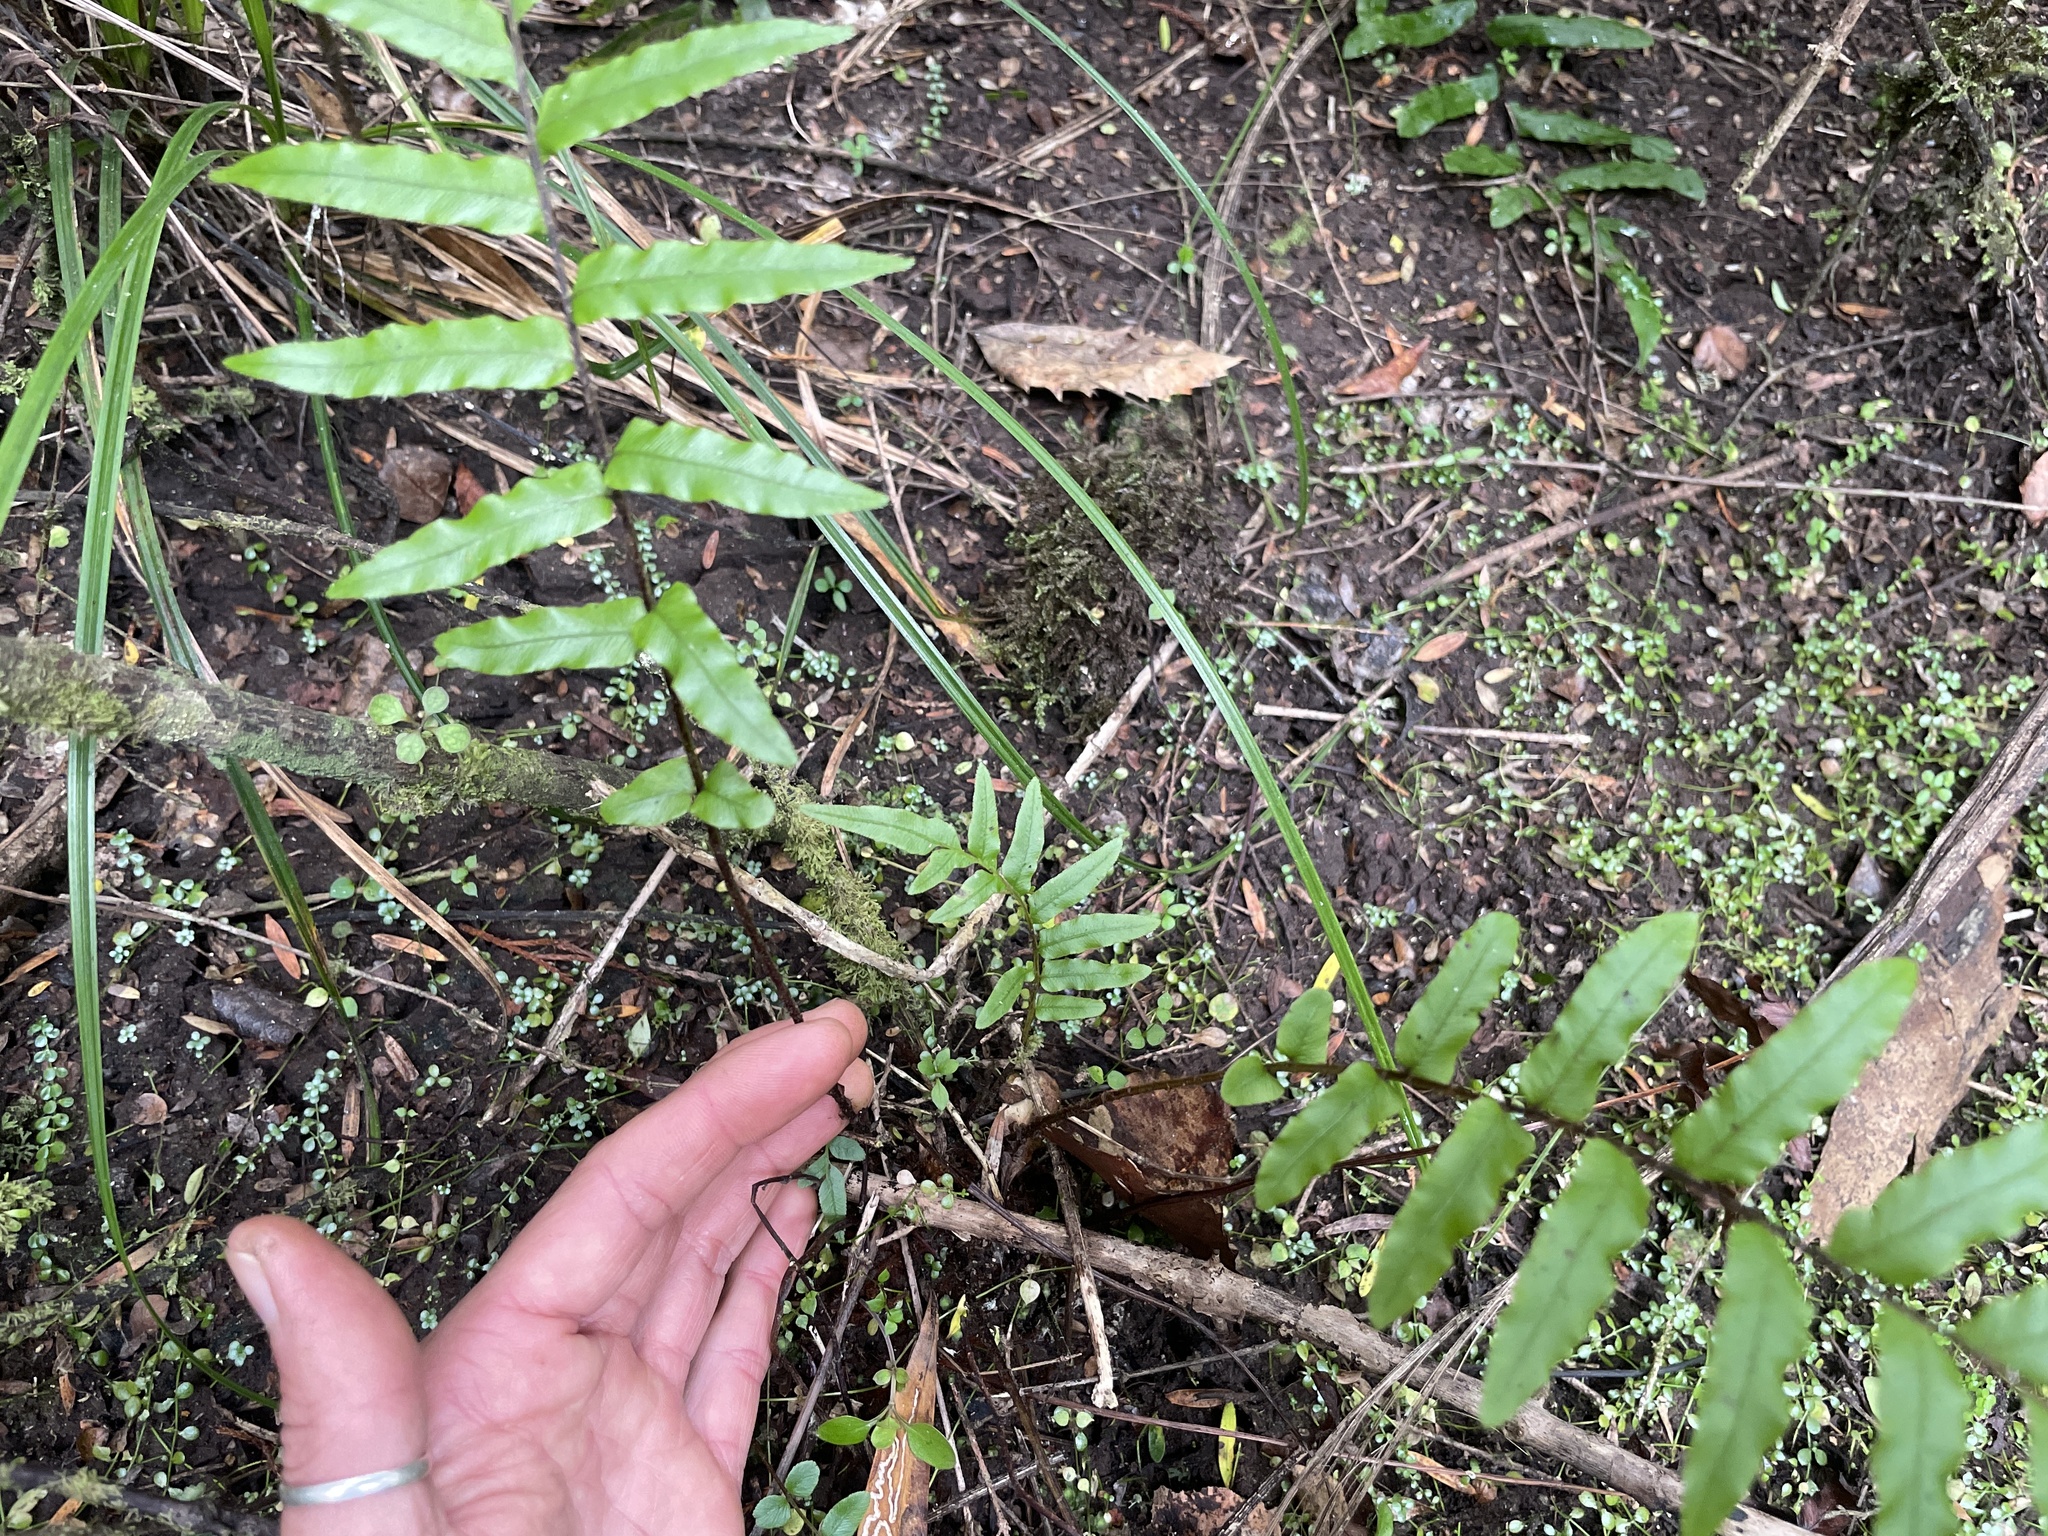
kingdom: Plantae
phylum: Tracheophyta
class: Polypodiopsida
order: Polypodiales
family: Blechnaceae
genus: Parablechnum
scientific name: Parablechnum minus
